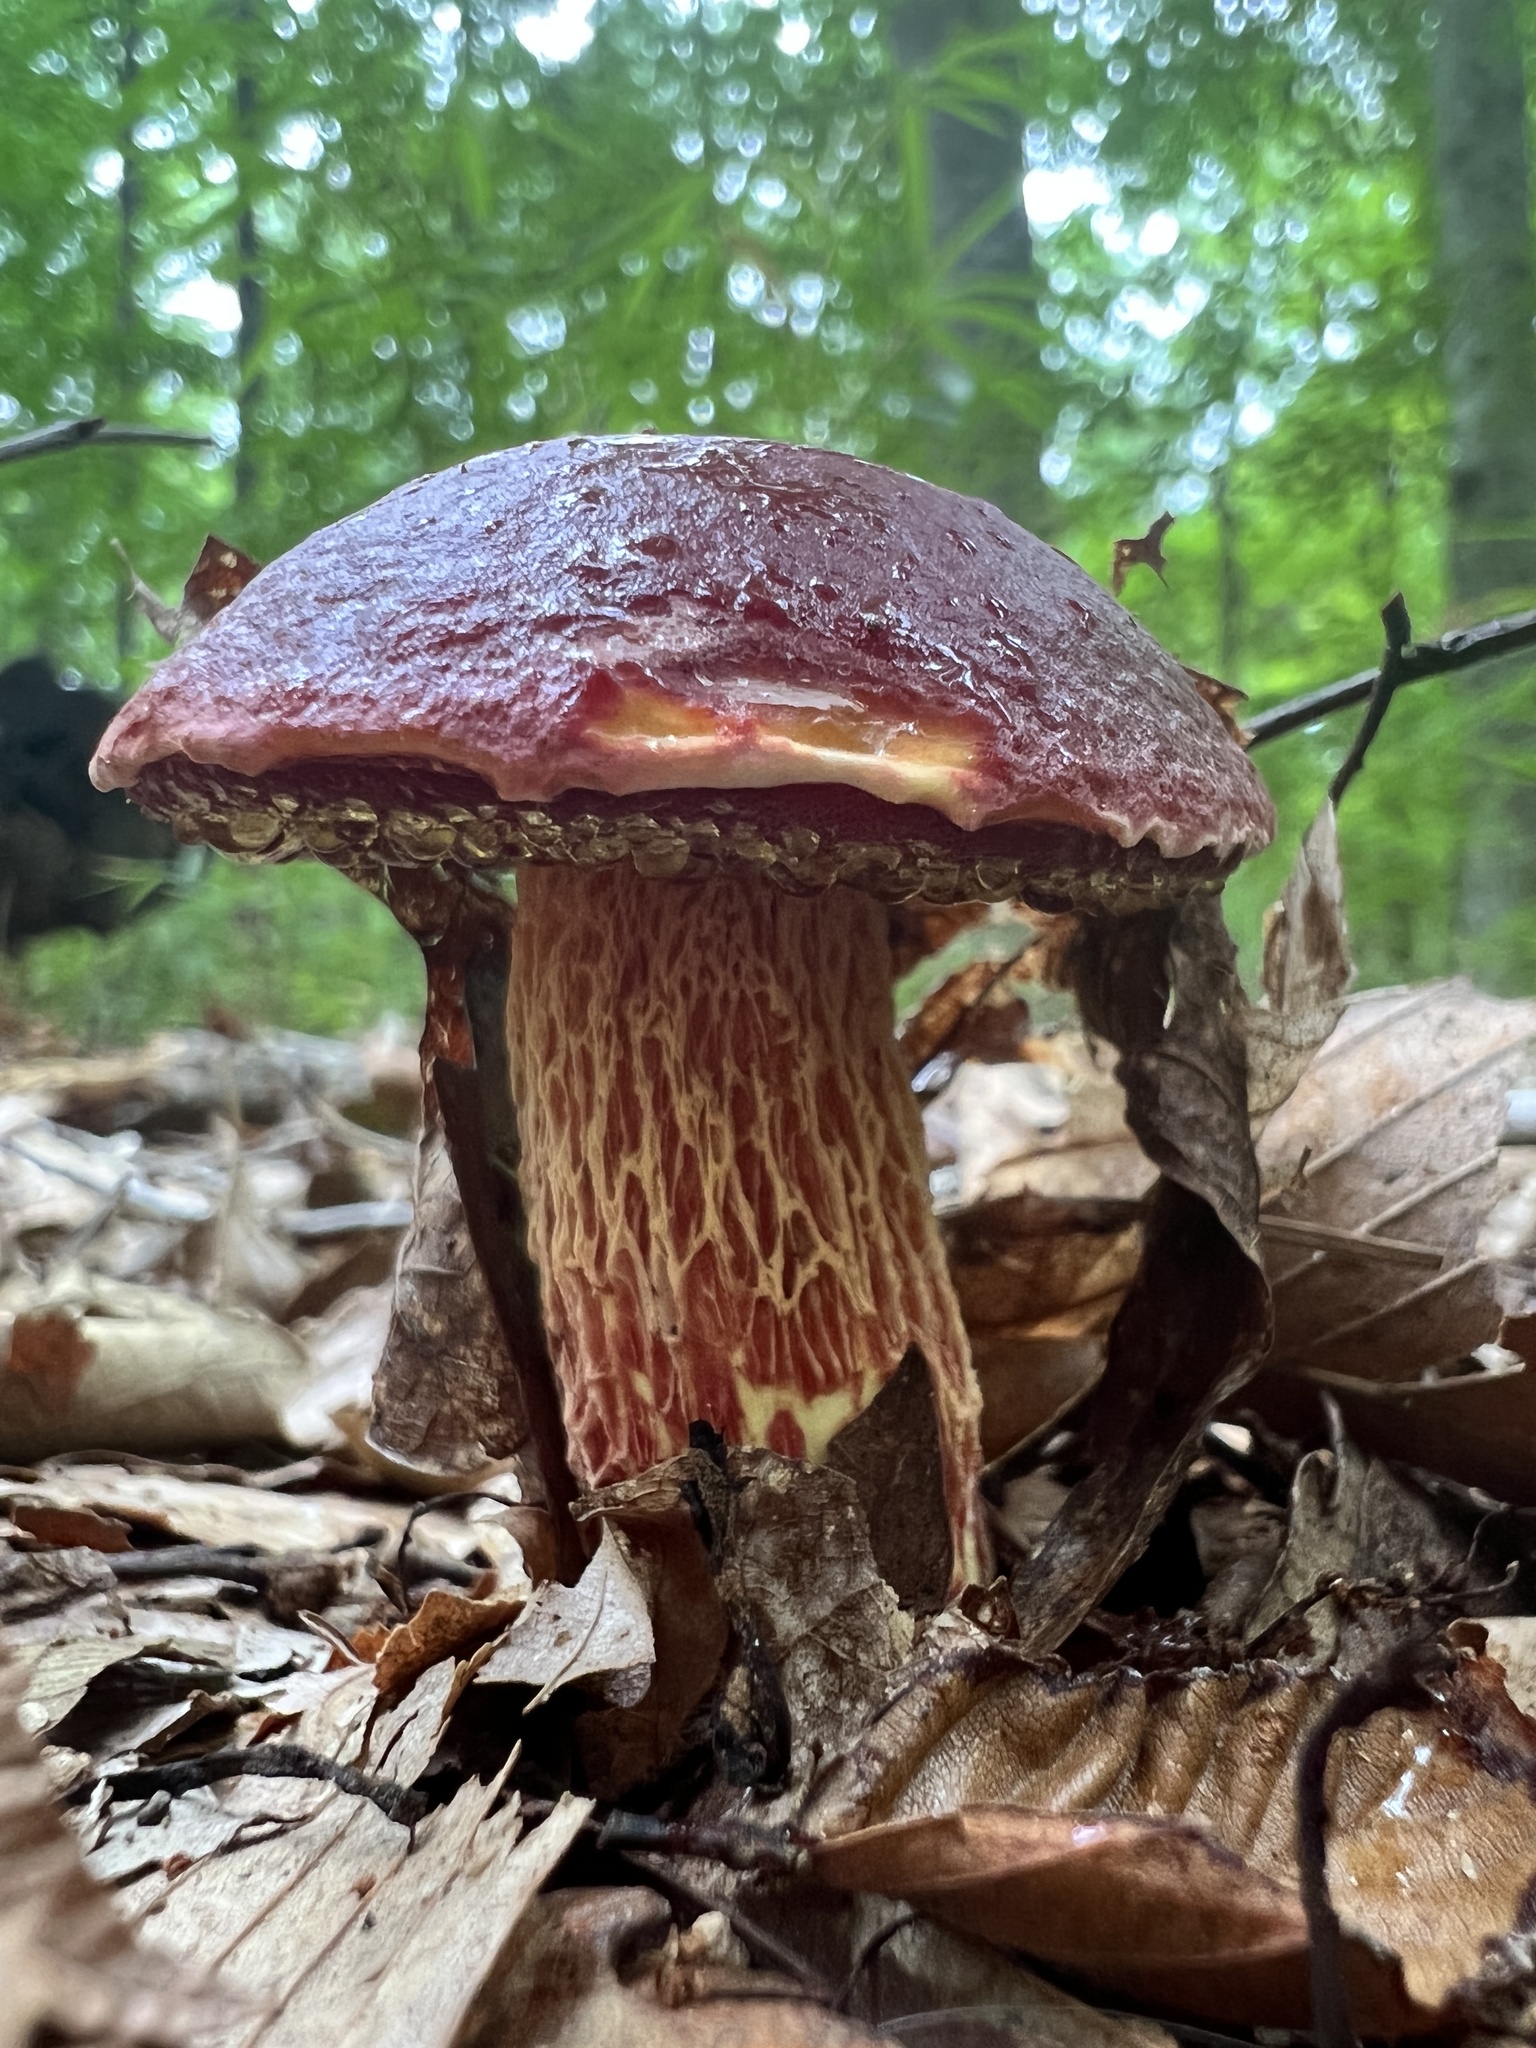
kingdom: Fungi
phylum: Basidiomycota
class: Agaricomycetes
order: Boletales
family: Boletaceae
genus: Butyriboletus
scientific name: Butyriboletus frostii
